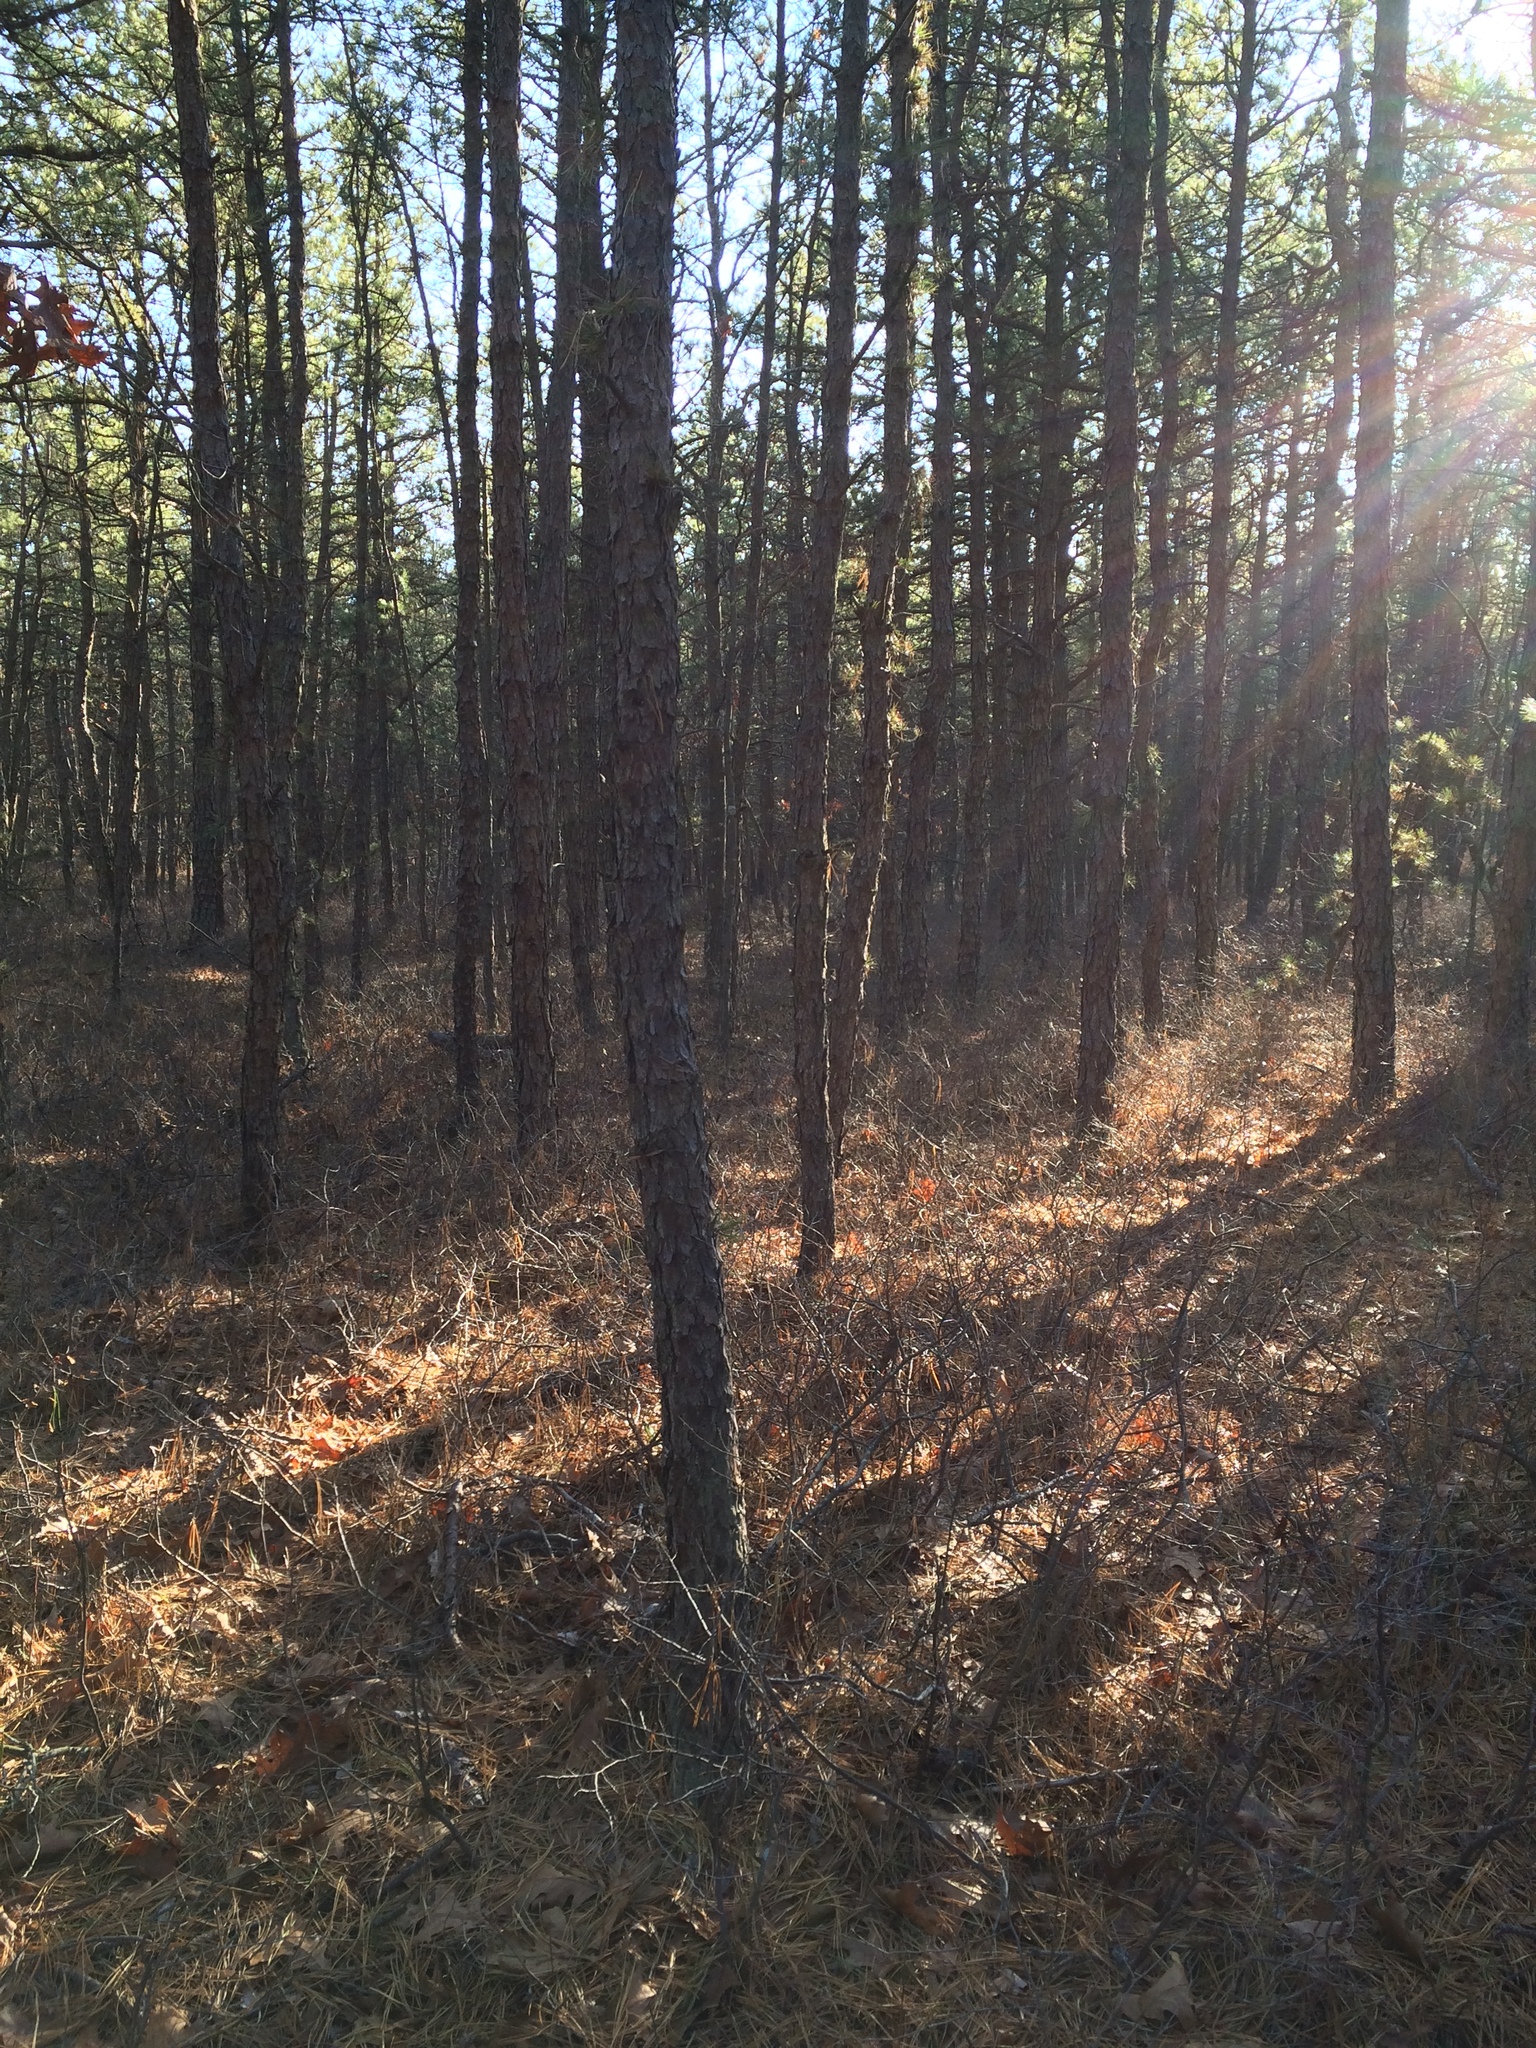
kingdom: Plantae
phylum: Tracheophyta
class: Pinopsida
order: Pinales
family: Pinaceae
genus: Pinus
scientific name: Pinus rigida
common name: Pitch pine
